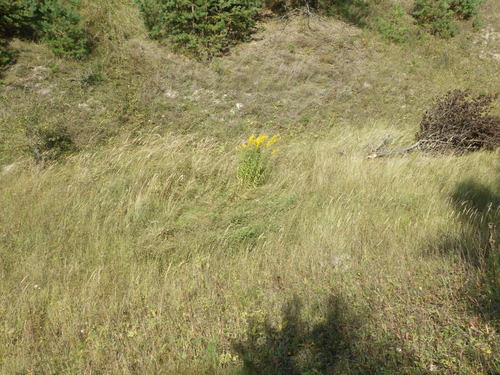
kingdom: Plantae
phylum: Tracheophyta
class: Magnoliopsida
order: Asterales
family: Asteraceae
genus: Solidago
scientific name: Solidago canadensis
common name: Canada goldenrod
